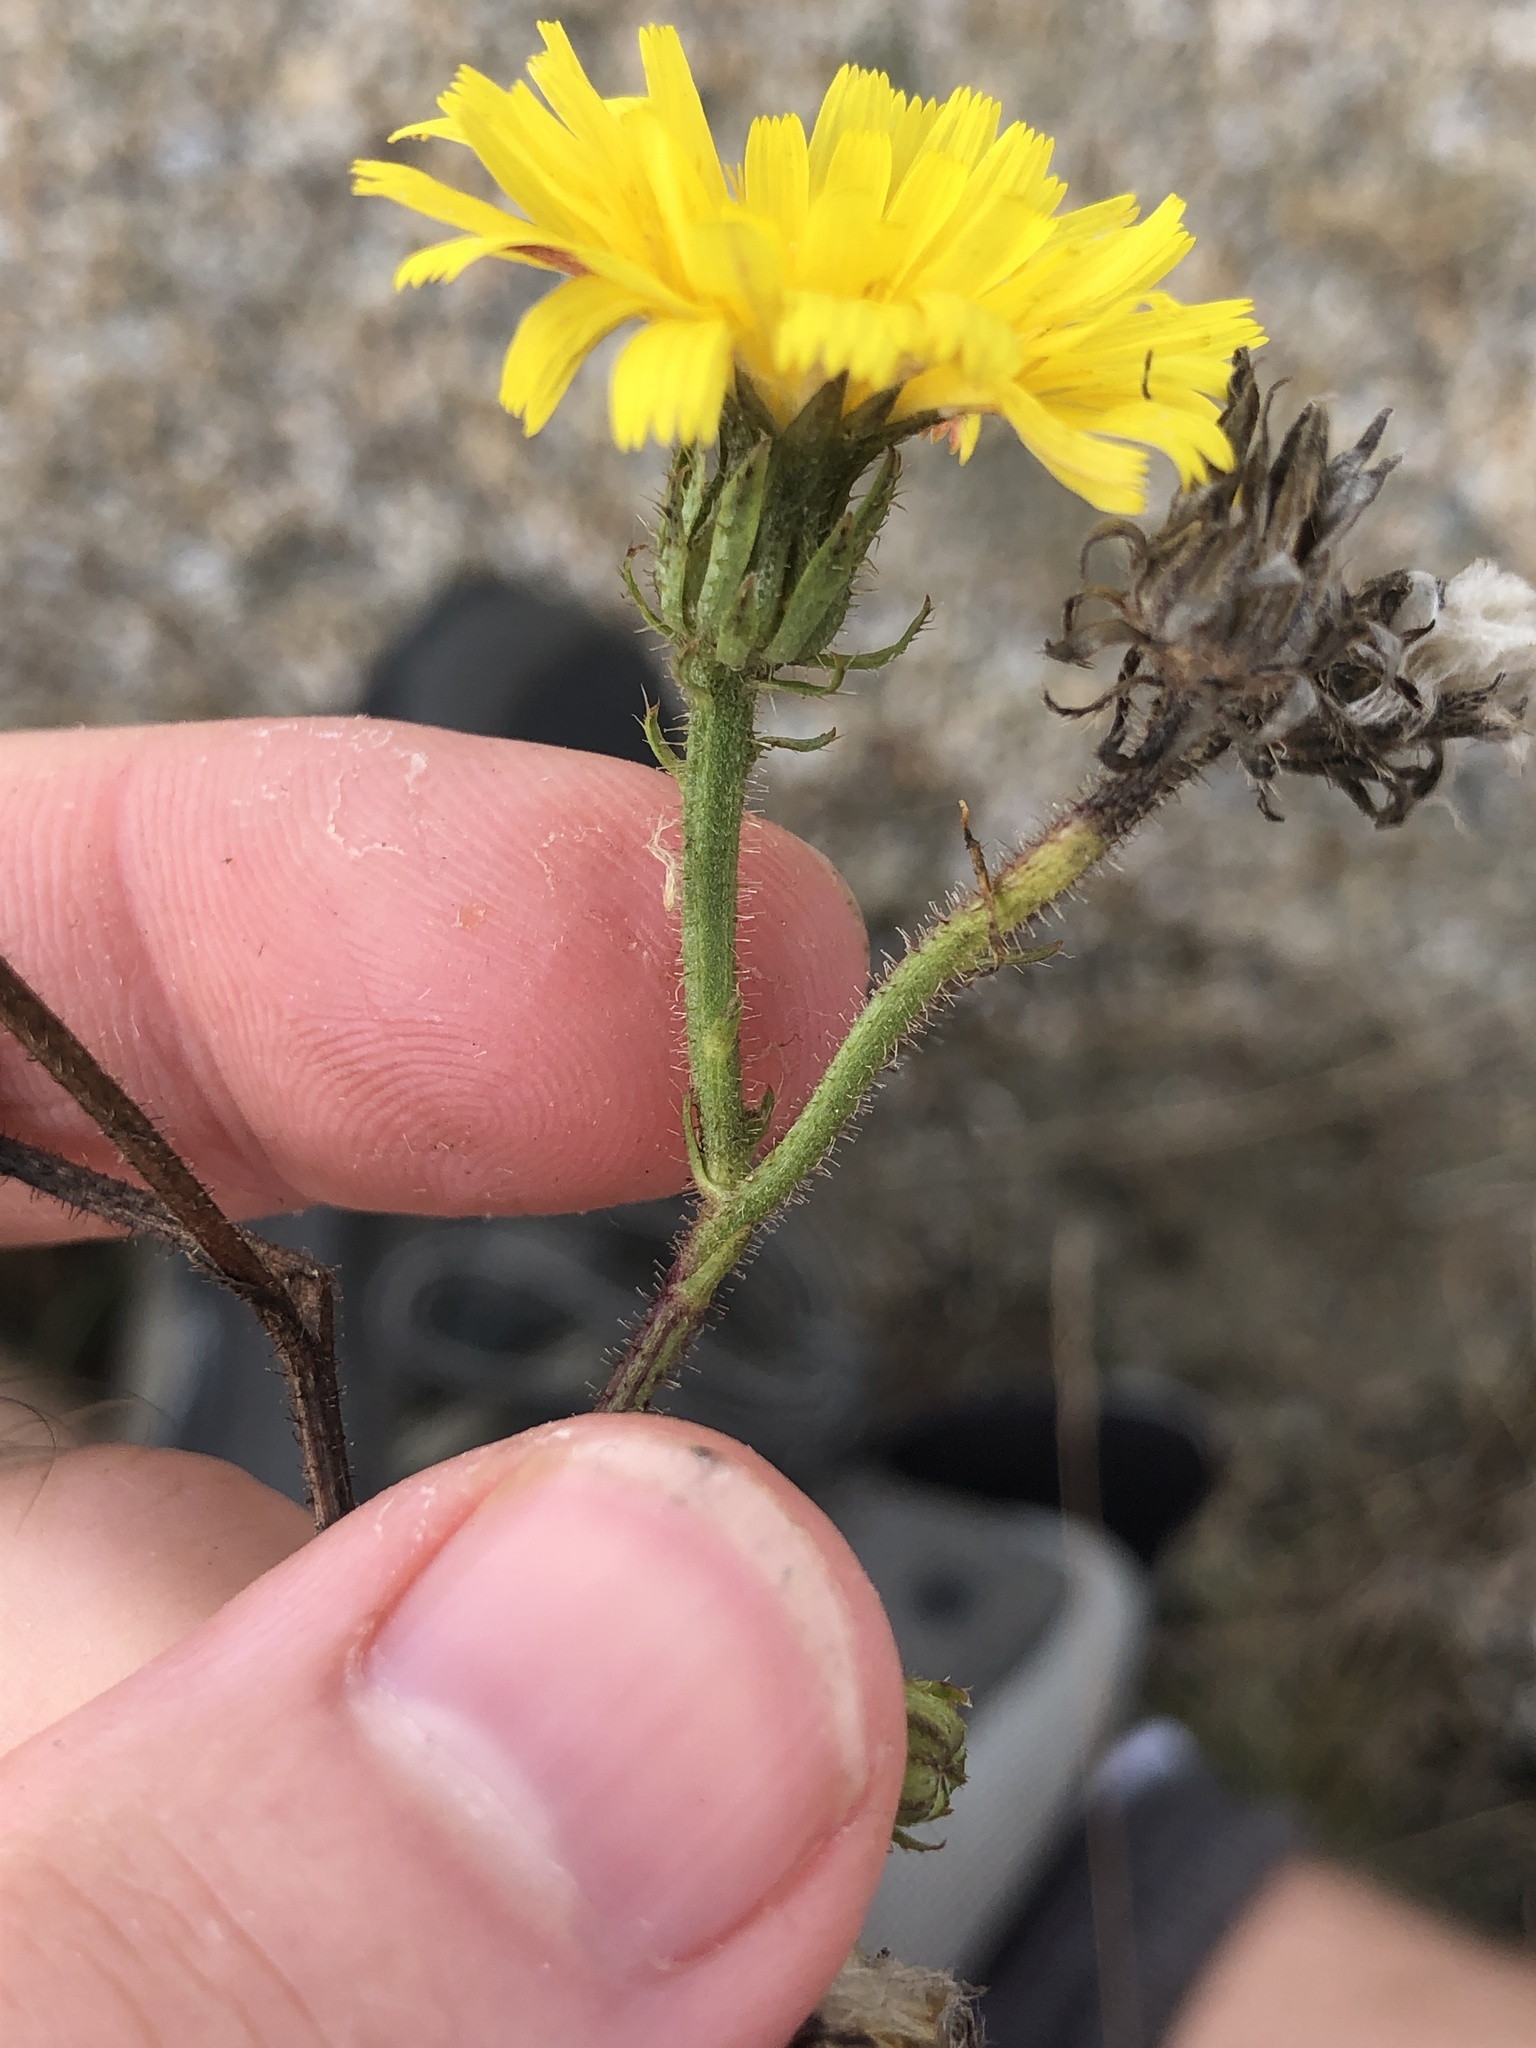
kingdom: Plantae
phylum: Tracheophyta
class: Magnoliopsida
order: Asterales
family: Asteraceae
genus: Picris
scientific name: Picris hieracioides
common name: Hawkweed oxtongue
